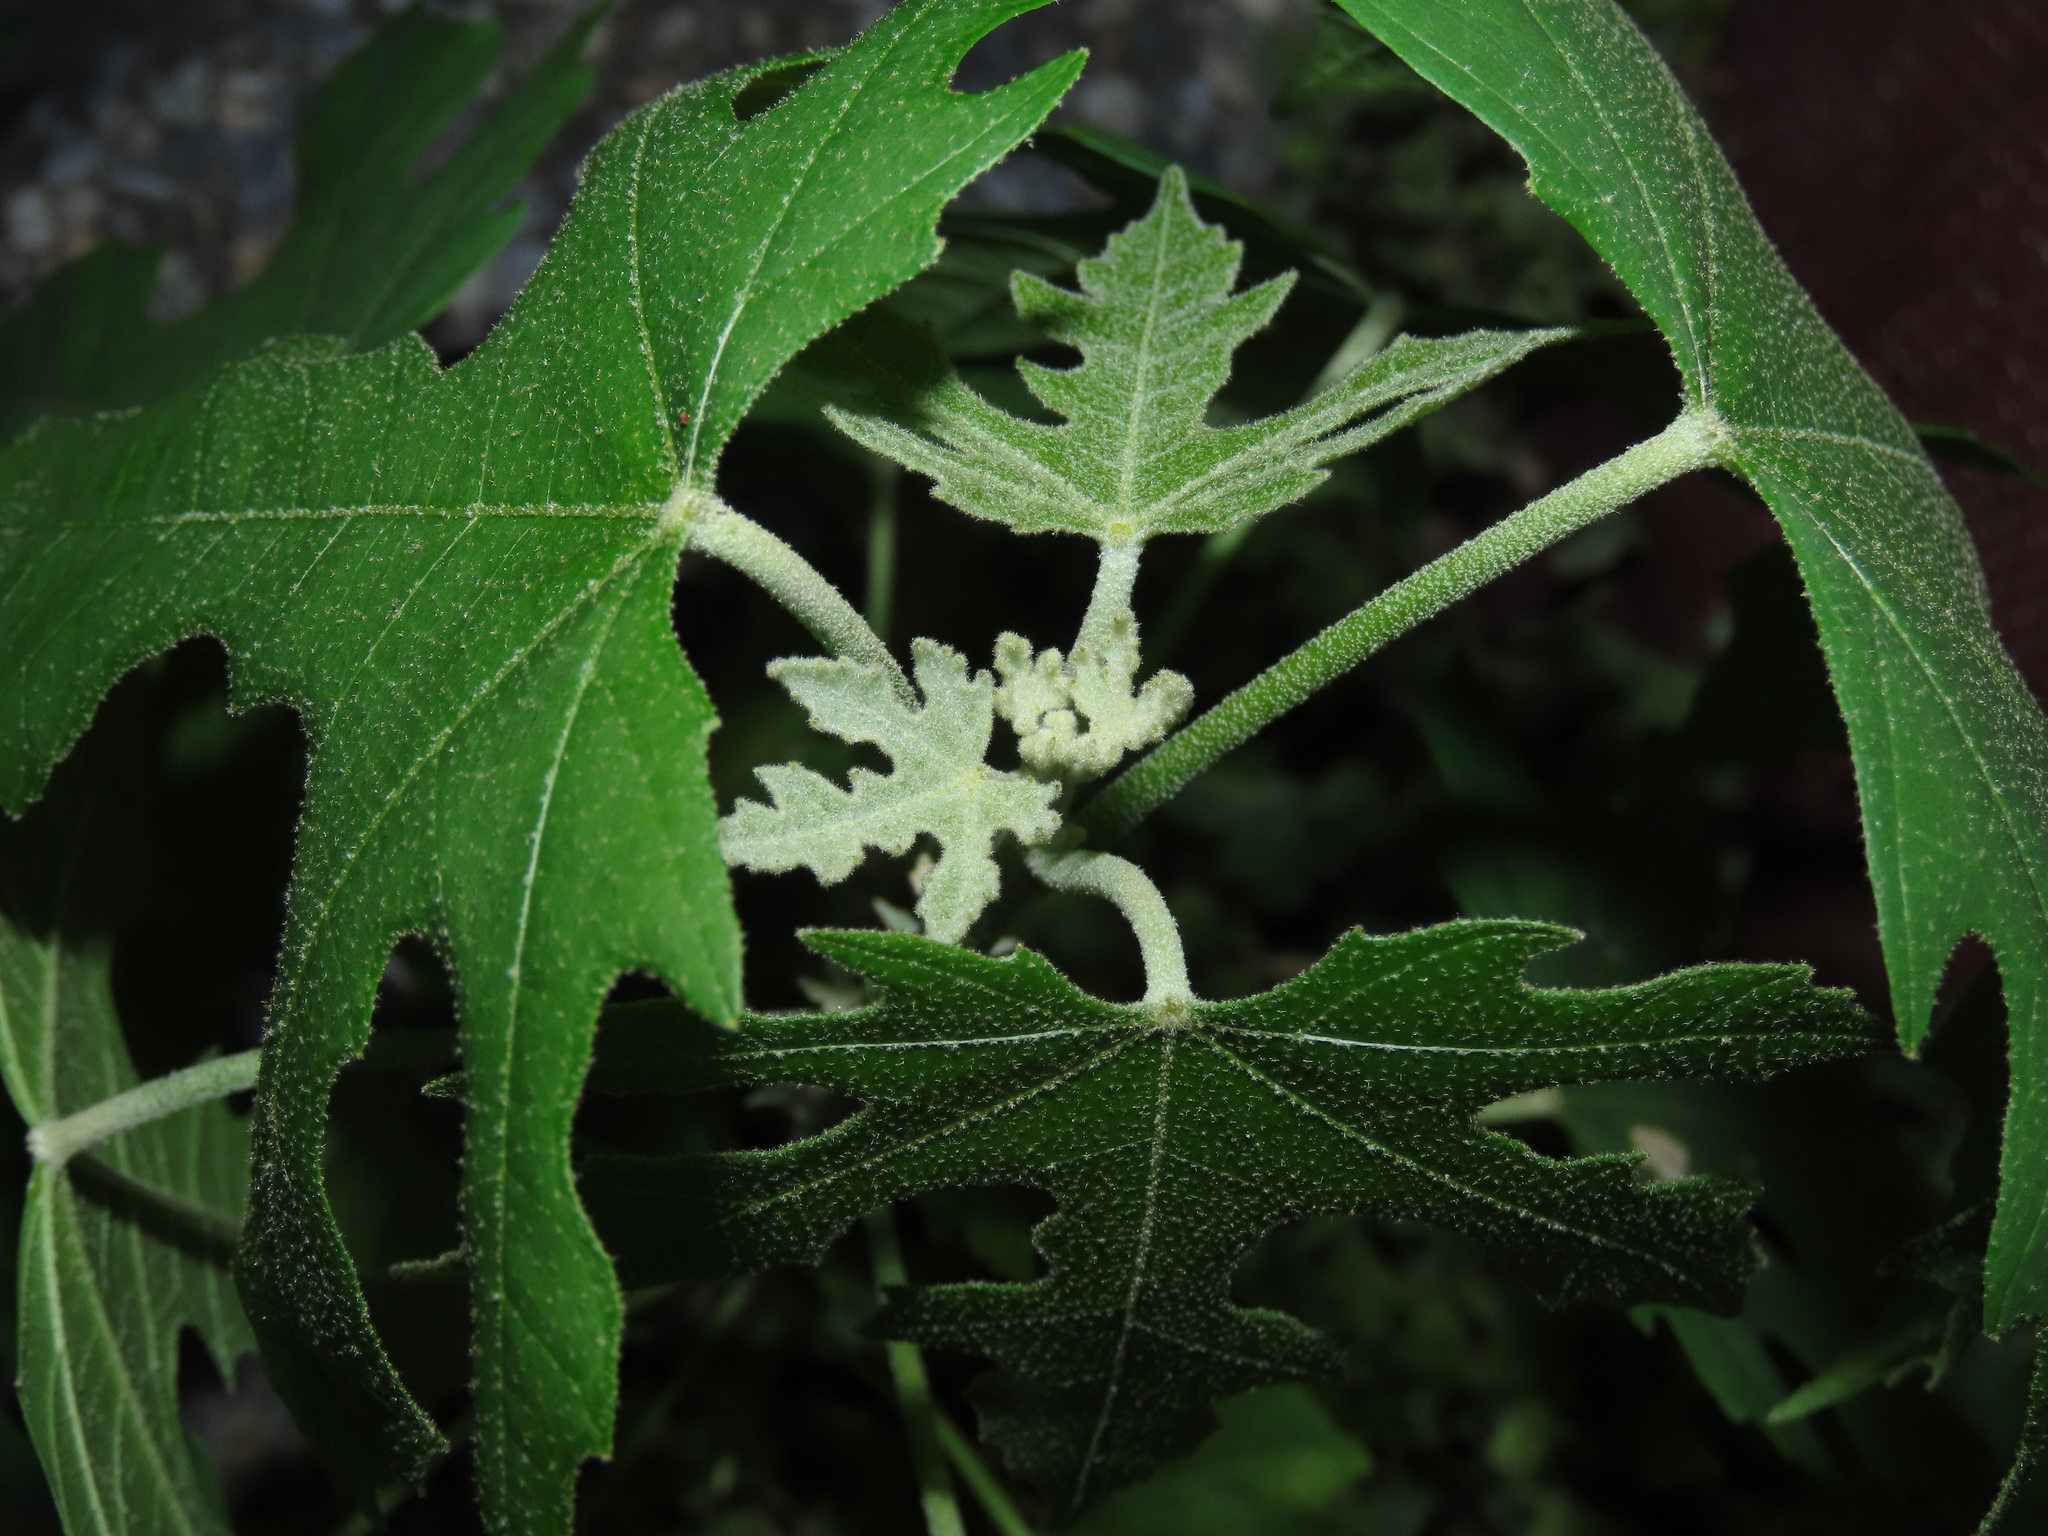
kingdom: Plantae
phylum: Tracheophyta
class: Magnoliopsida
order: Malpighiales
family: Euphorbiaceae
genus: Melanolepis
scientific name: Melanolepis multiglandulosa
